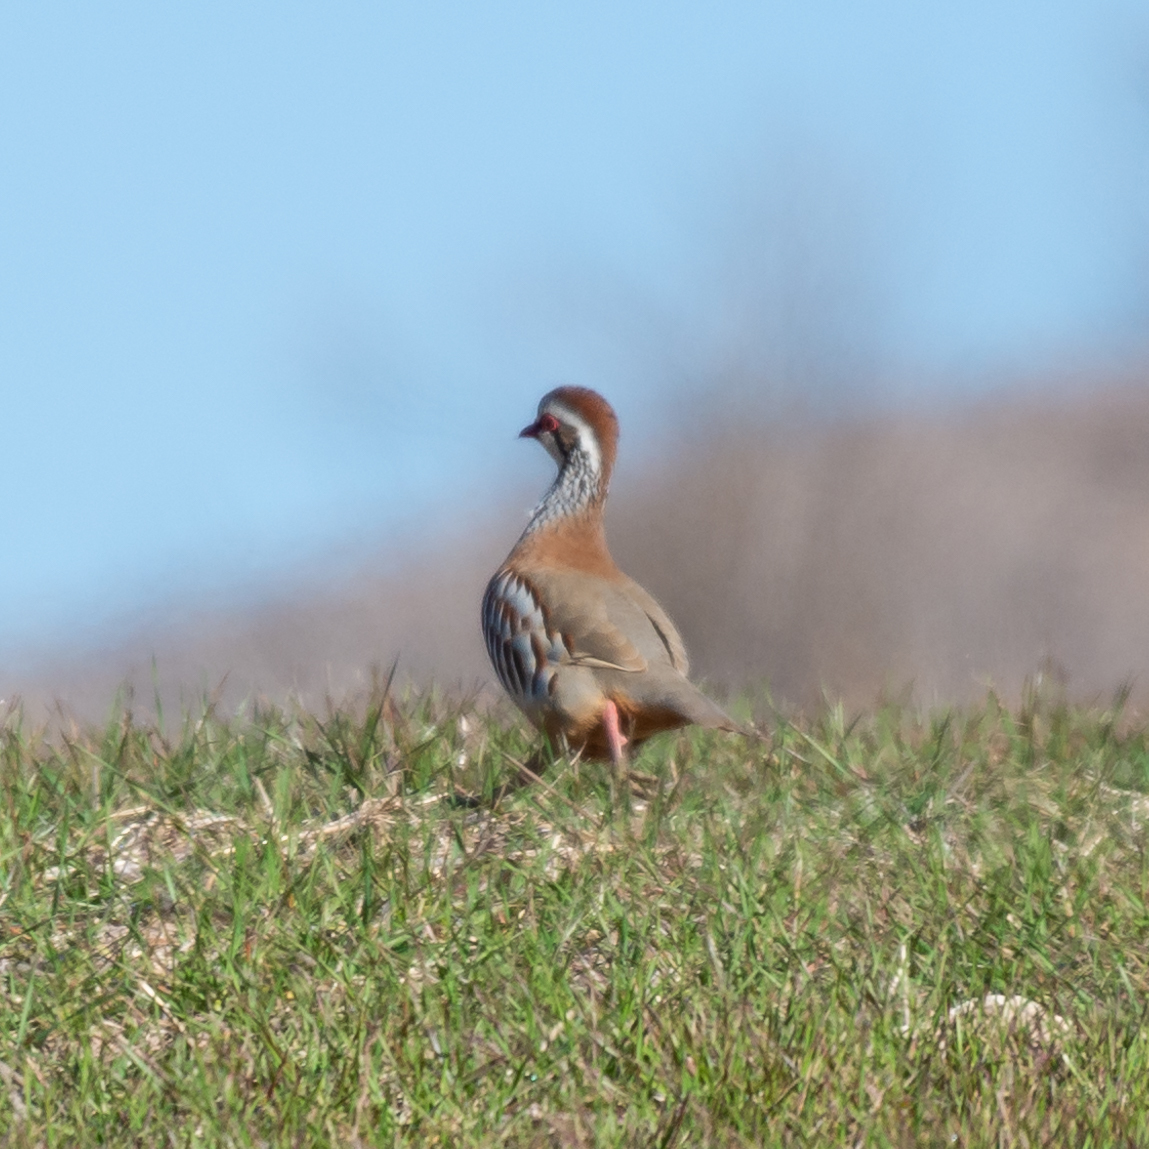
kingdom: Animalia
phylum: Chordata
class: Aves
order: Galliformes
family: Phasianidae
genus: Alectoris
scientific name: Alectoris rufa
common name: Red-legged partridge
